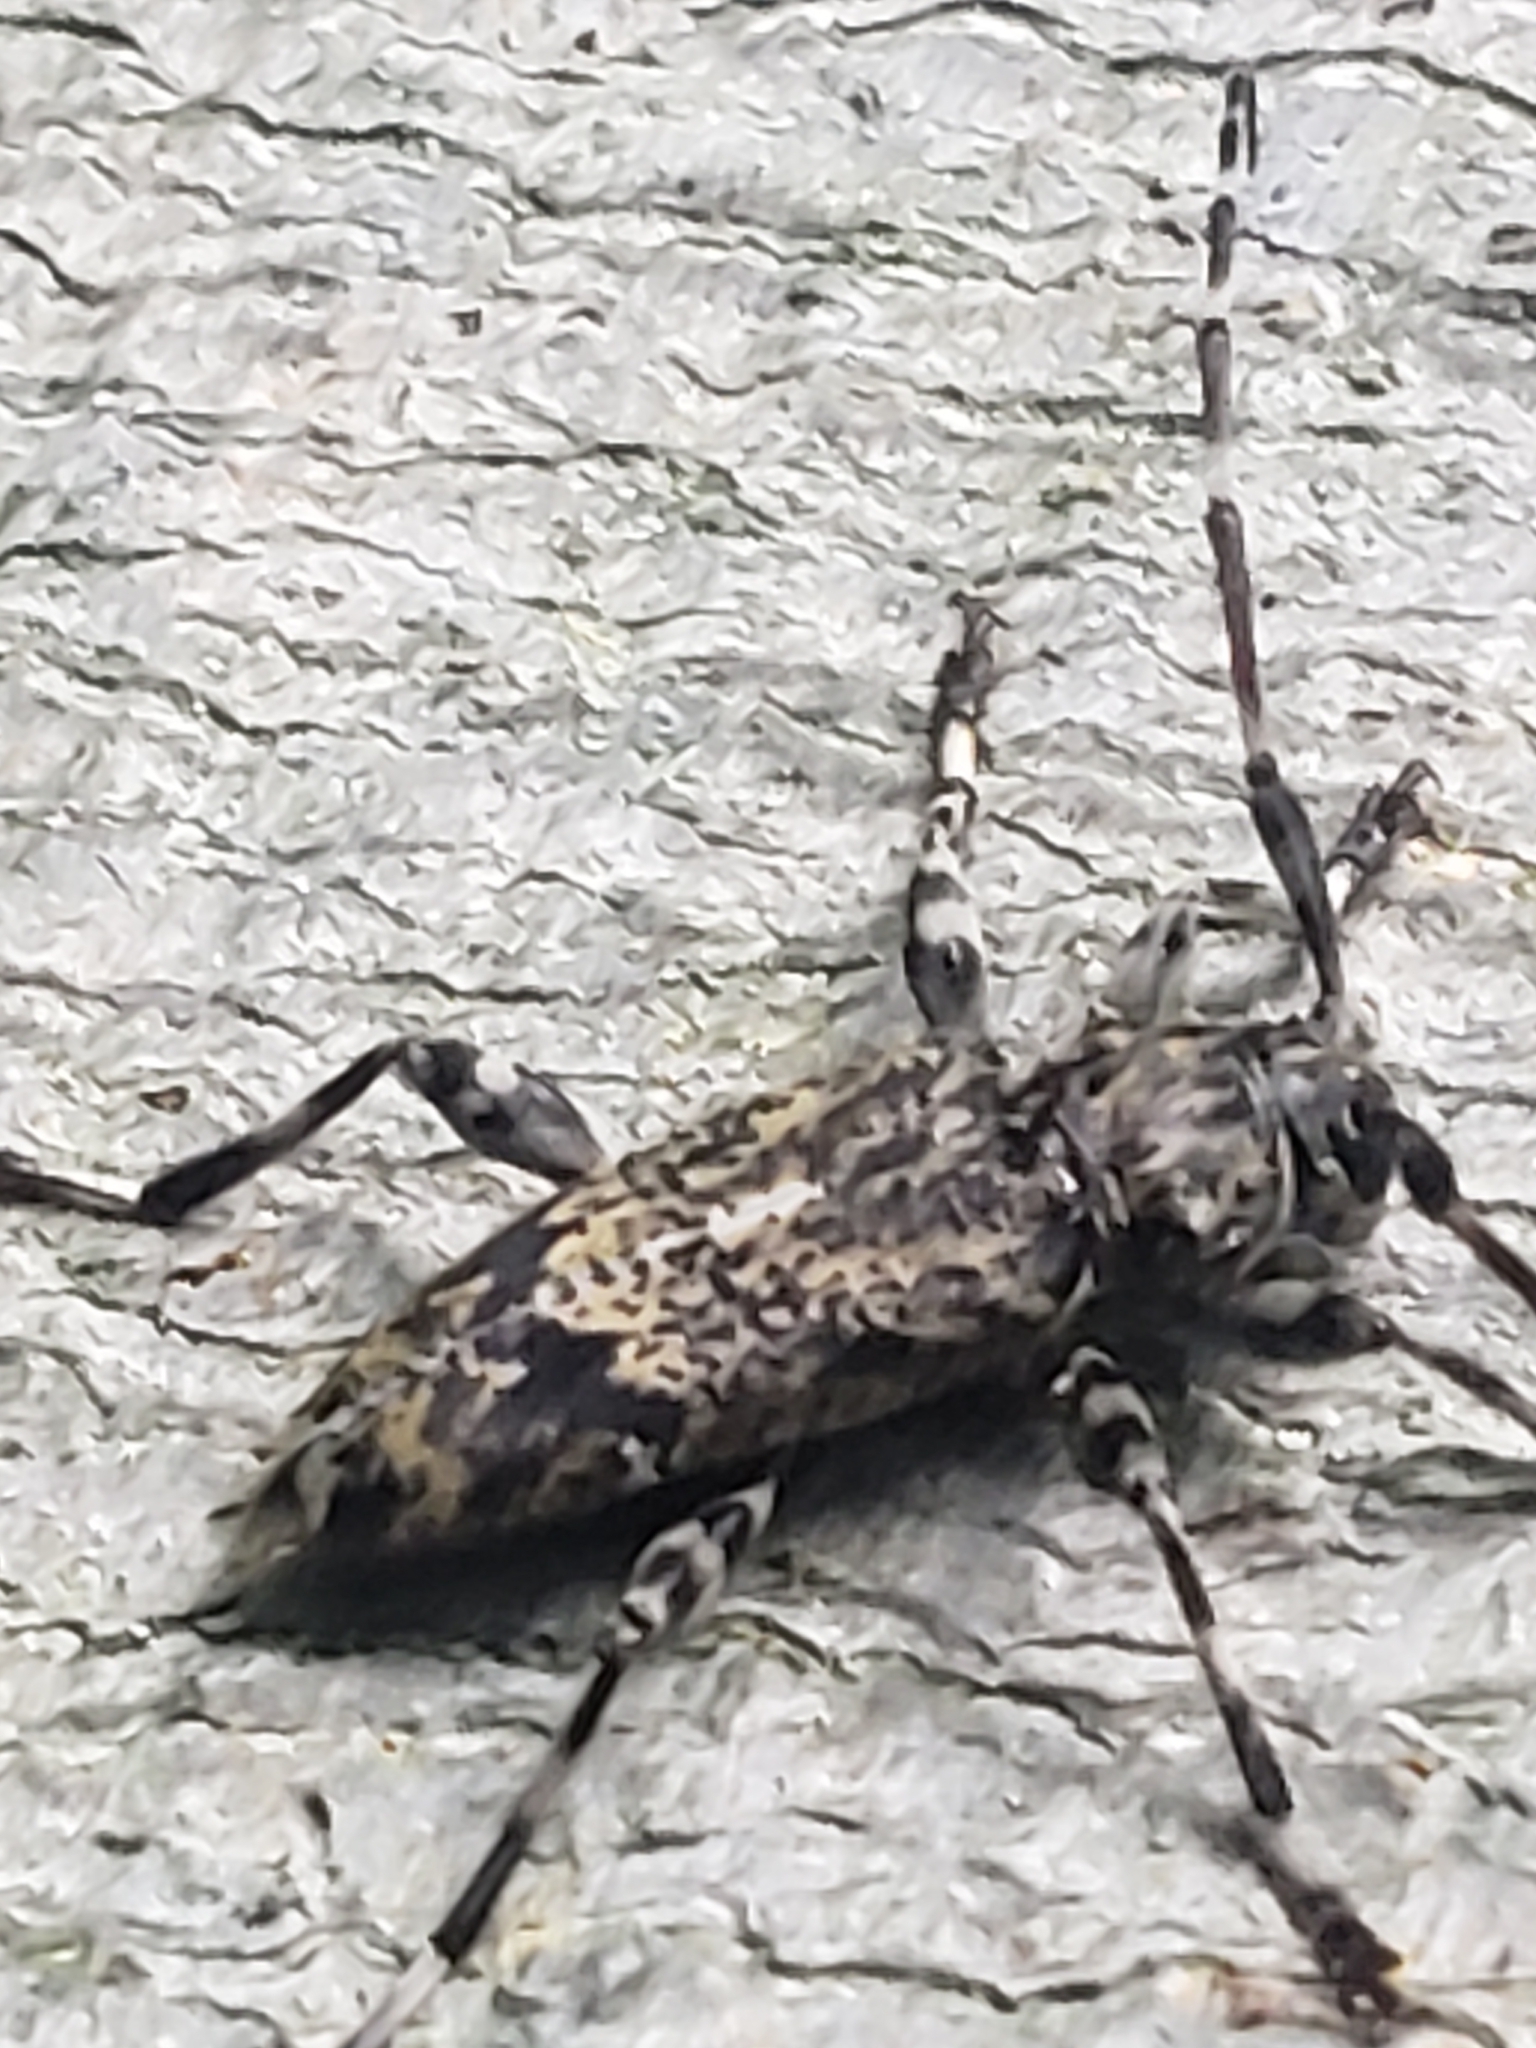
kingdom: Animalia
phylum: Arthropoda
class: Insecta
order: Coleoptera
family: Cerambycidae
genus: Graphisurus
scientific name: Graphisurus fasciatus
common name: Banded graphisurus
